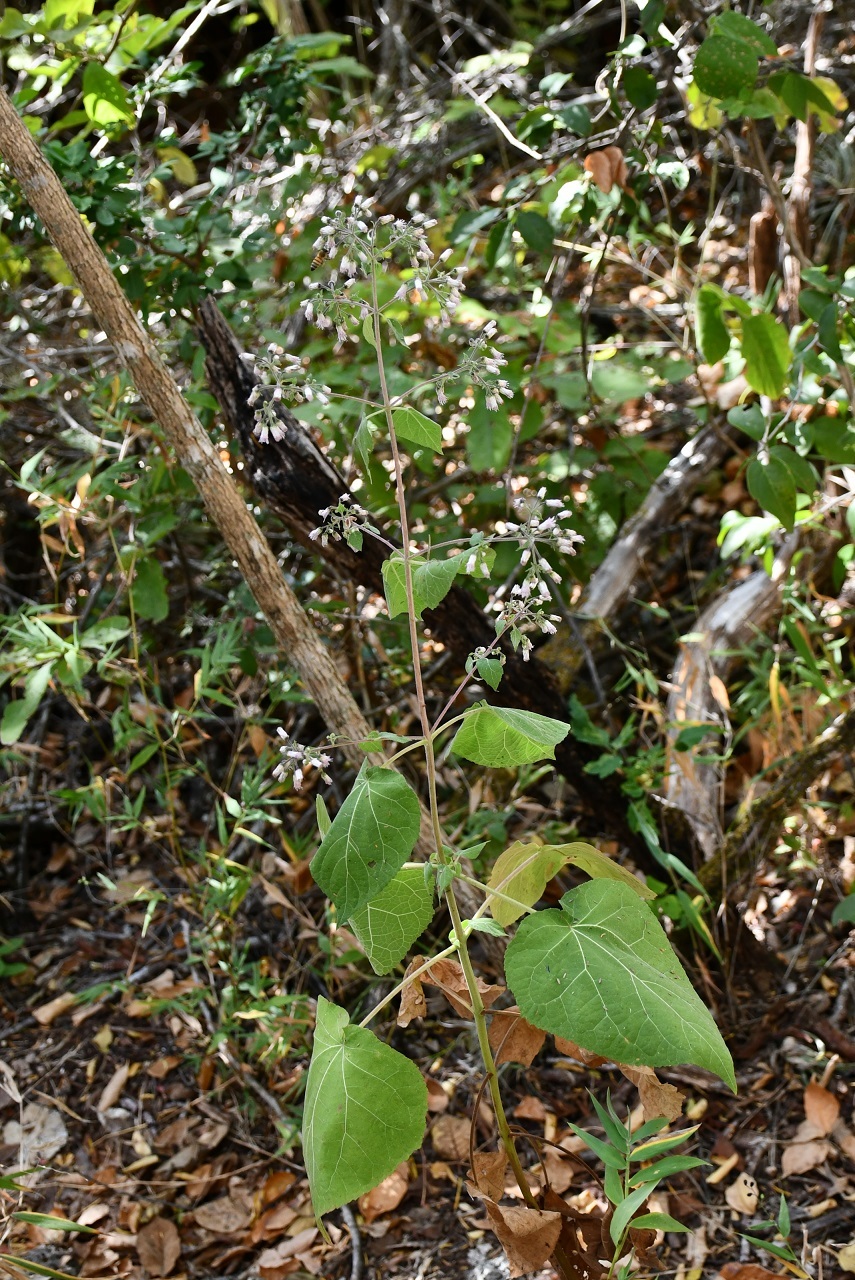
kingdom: Plantae
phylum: Tracheophyta
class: Magnoliopsida
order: Asterales
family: Asteraceae
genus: Peteravenia
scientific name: Peteravenia schultzii
